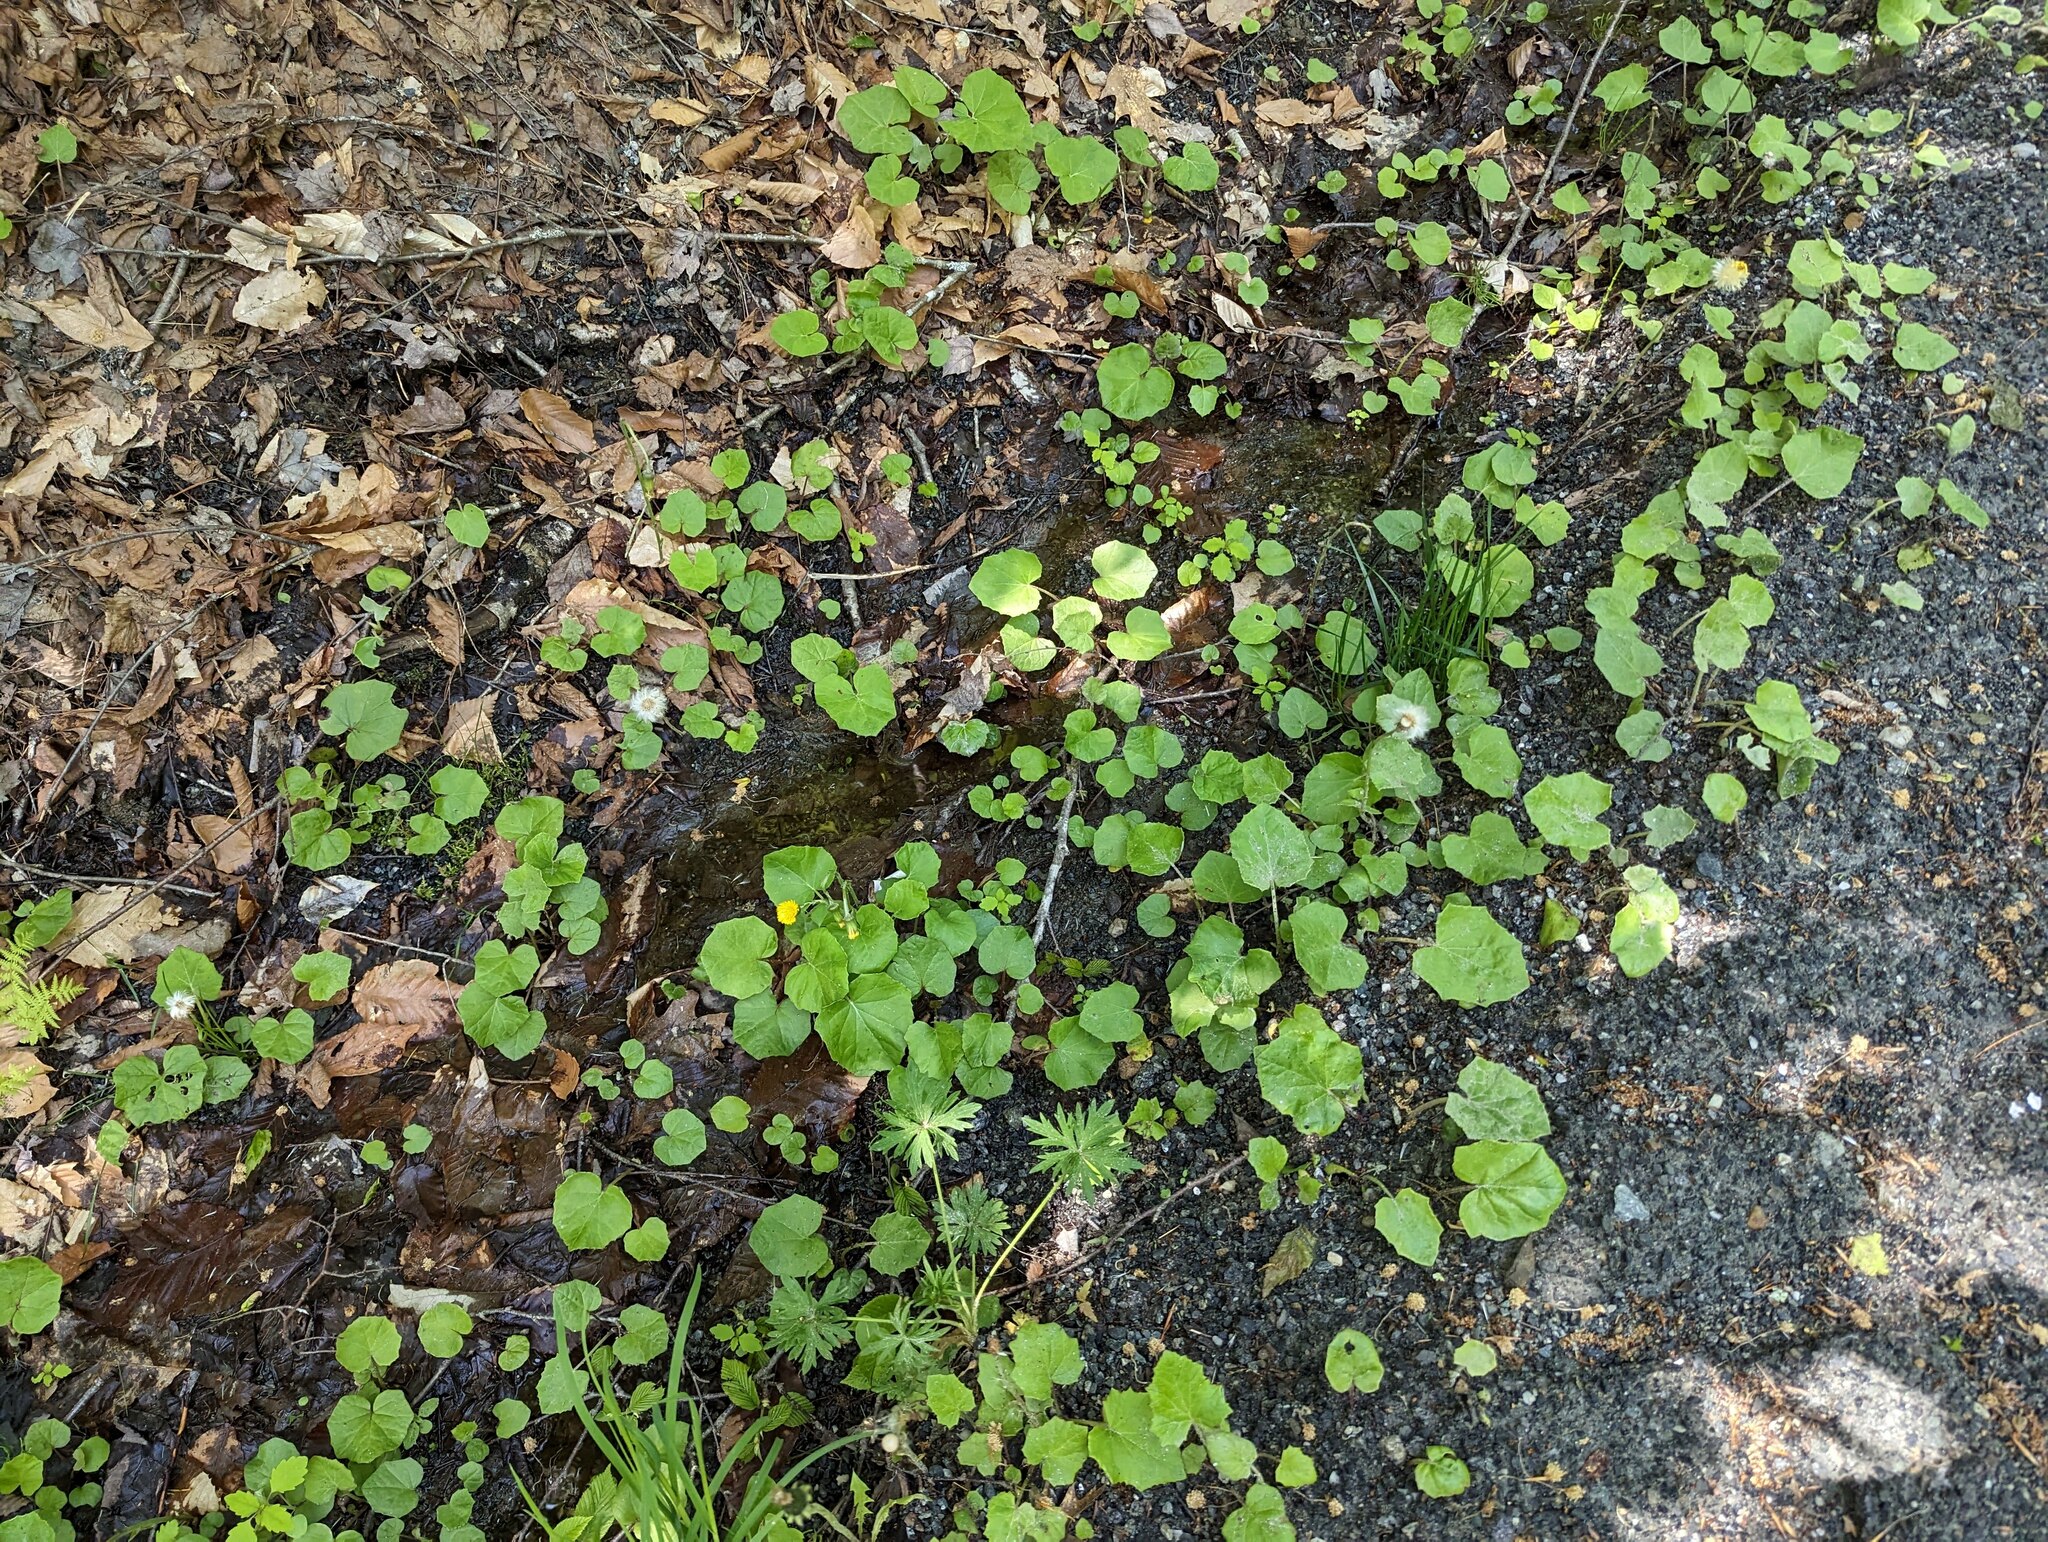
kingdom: Plantae
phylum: Tracheophyta
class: Magnoliopsida
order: Asterales
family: Asteraceae
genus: Tussilago
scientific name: Tussilago farfara
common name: Coltsfoot
